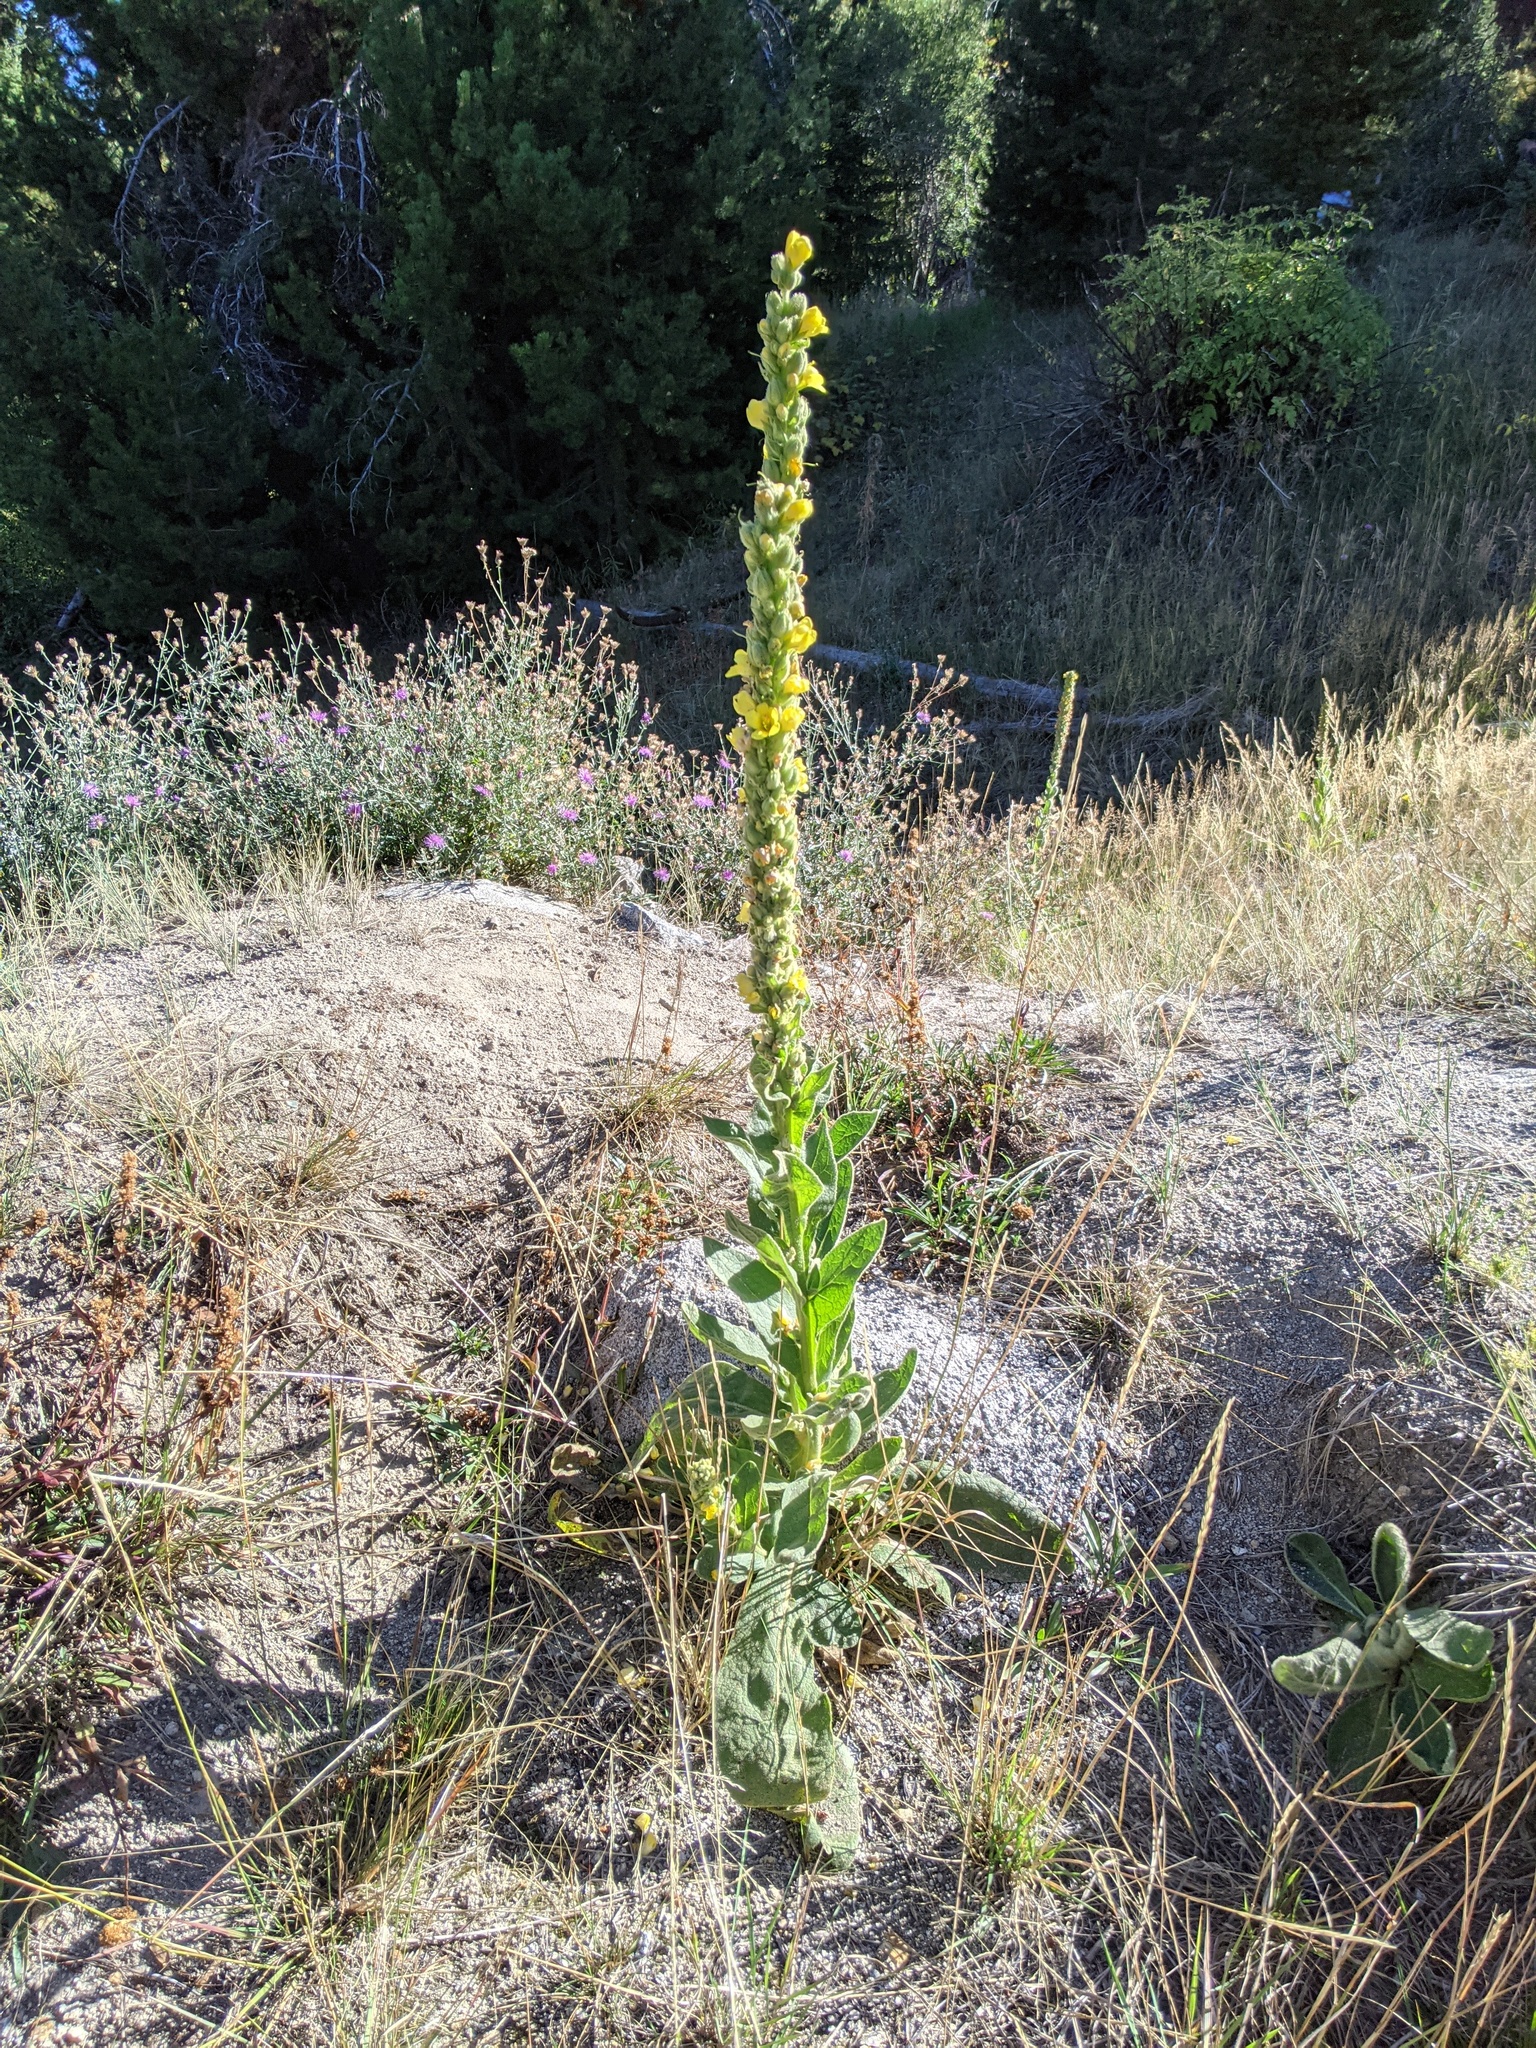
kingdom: Plantae
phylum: Tracheophyta
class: Magnoliopsida
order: Lamiales
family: Scrophulariaceae
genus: Verbascum
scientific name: Verbascum thapsus
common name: Common mullein
